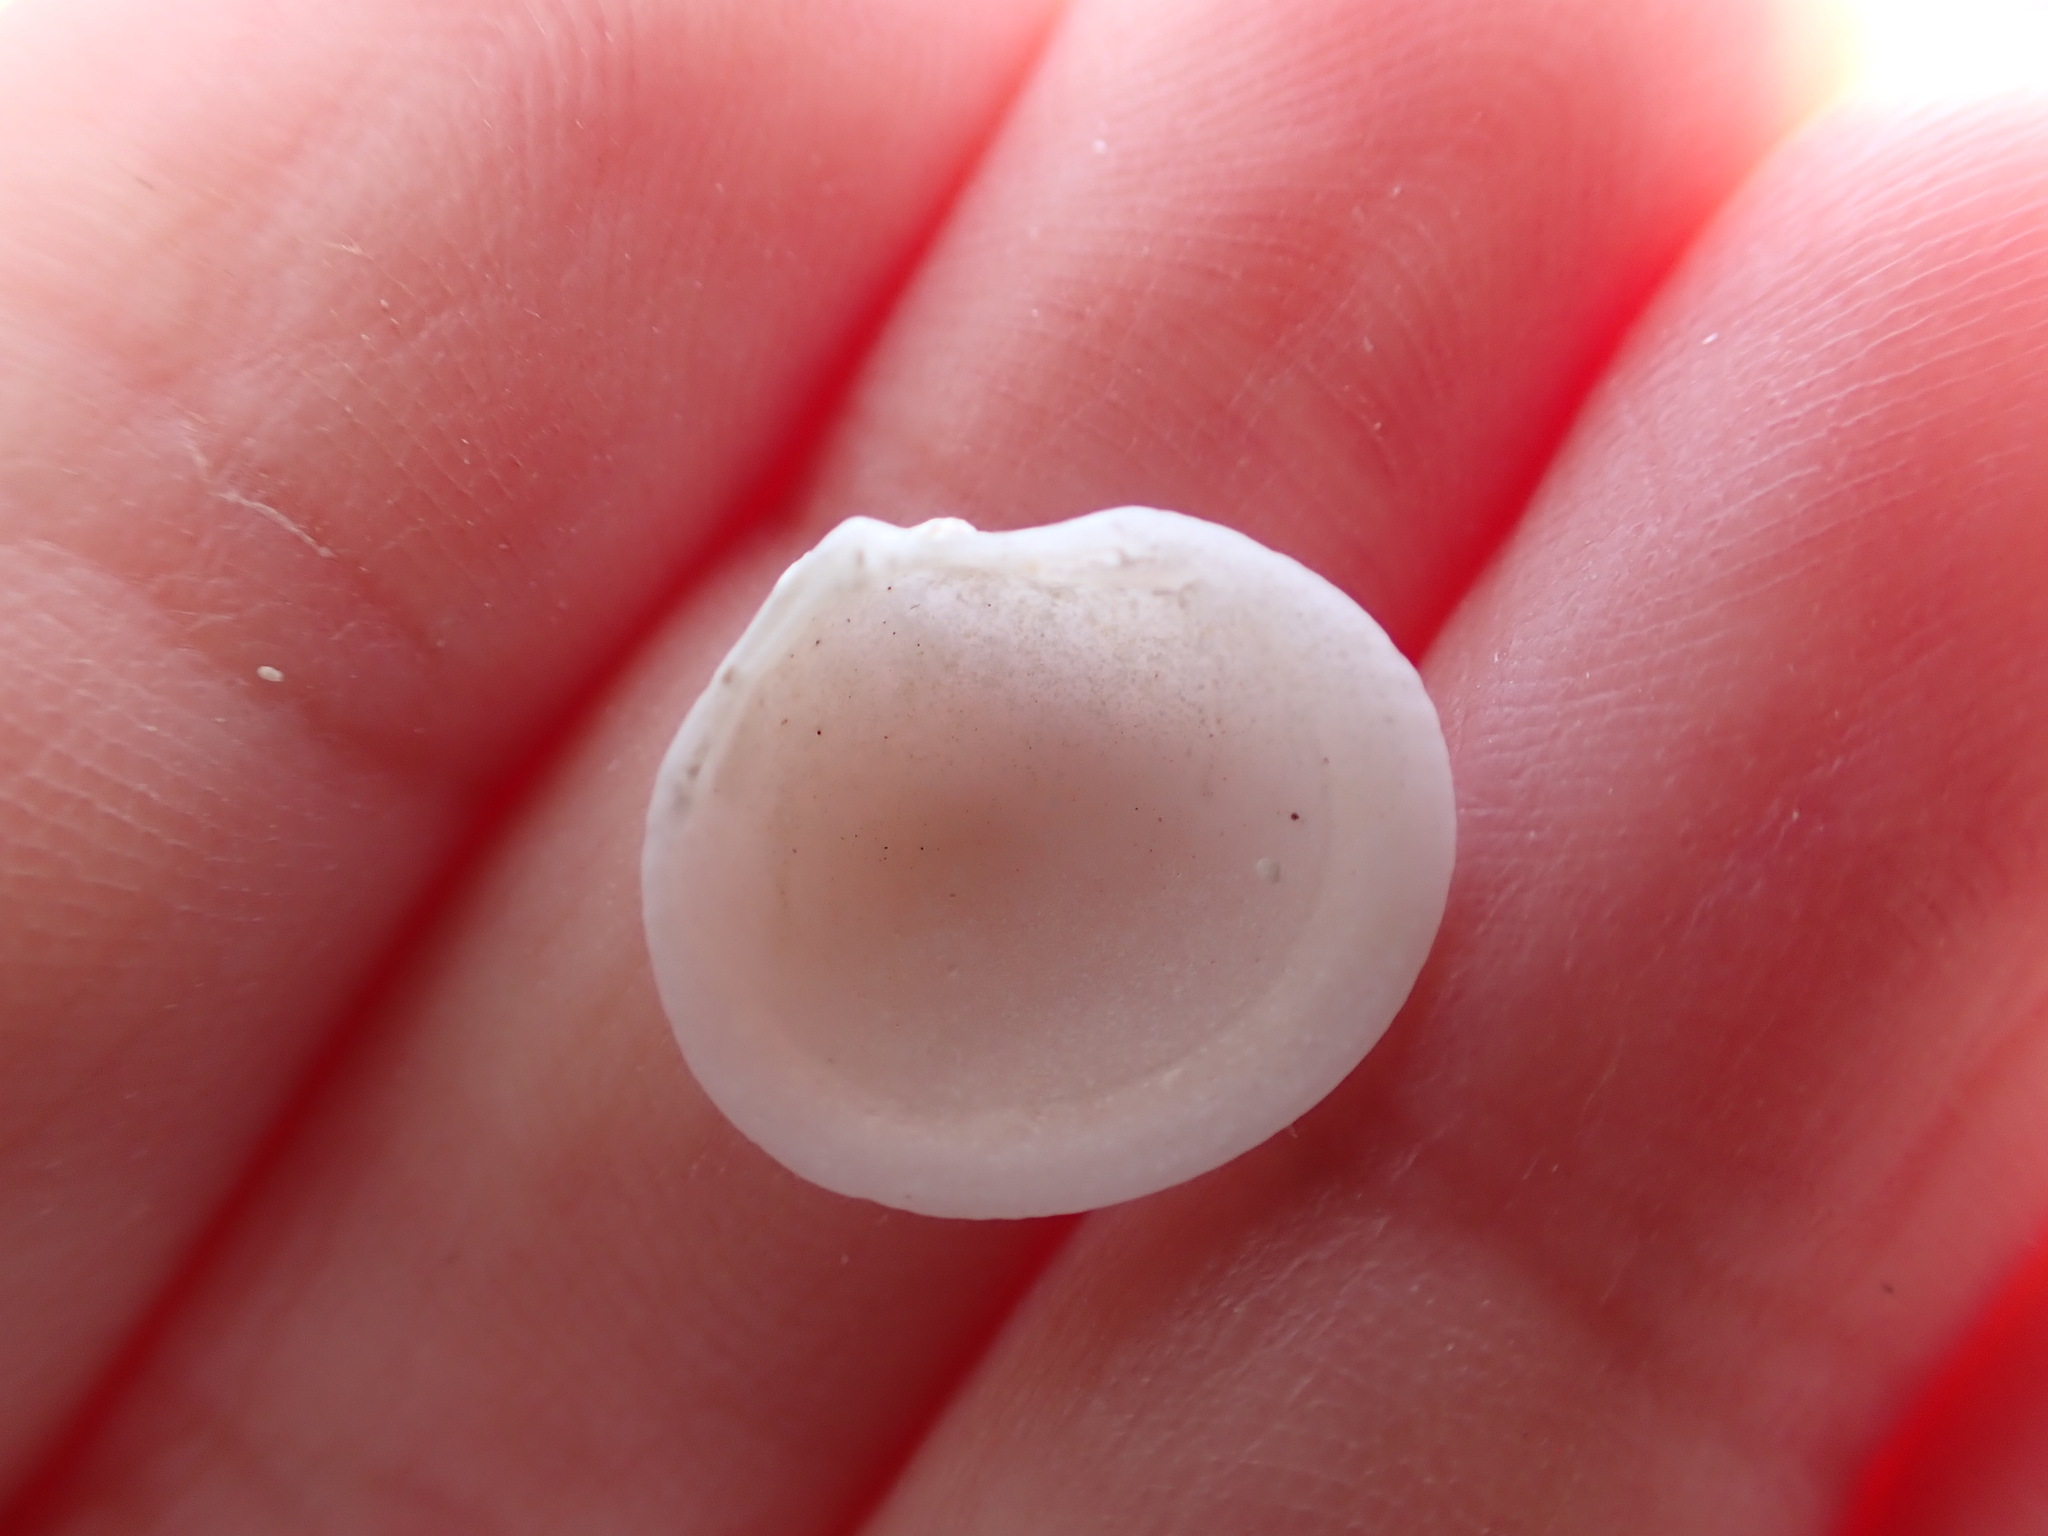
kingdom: Animalia
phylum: Mollusca
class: Bivalvia
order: Lucinida
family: Lucinidae
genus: Ctena
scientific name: Ctena decussata
